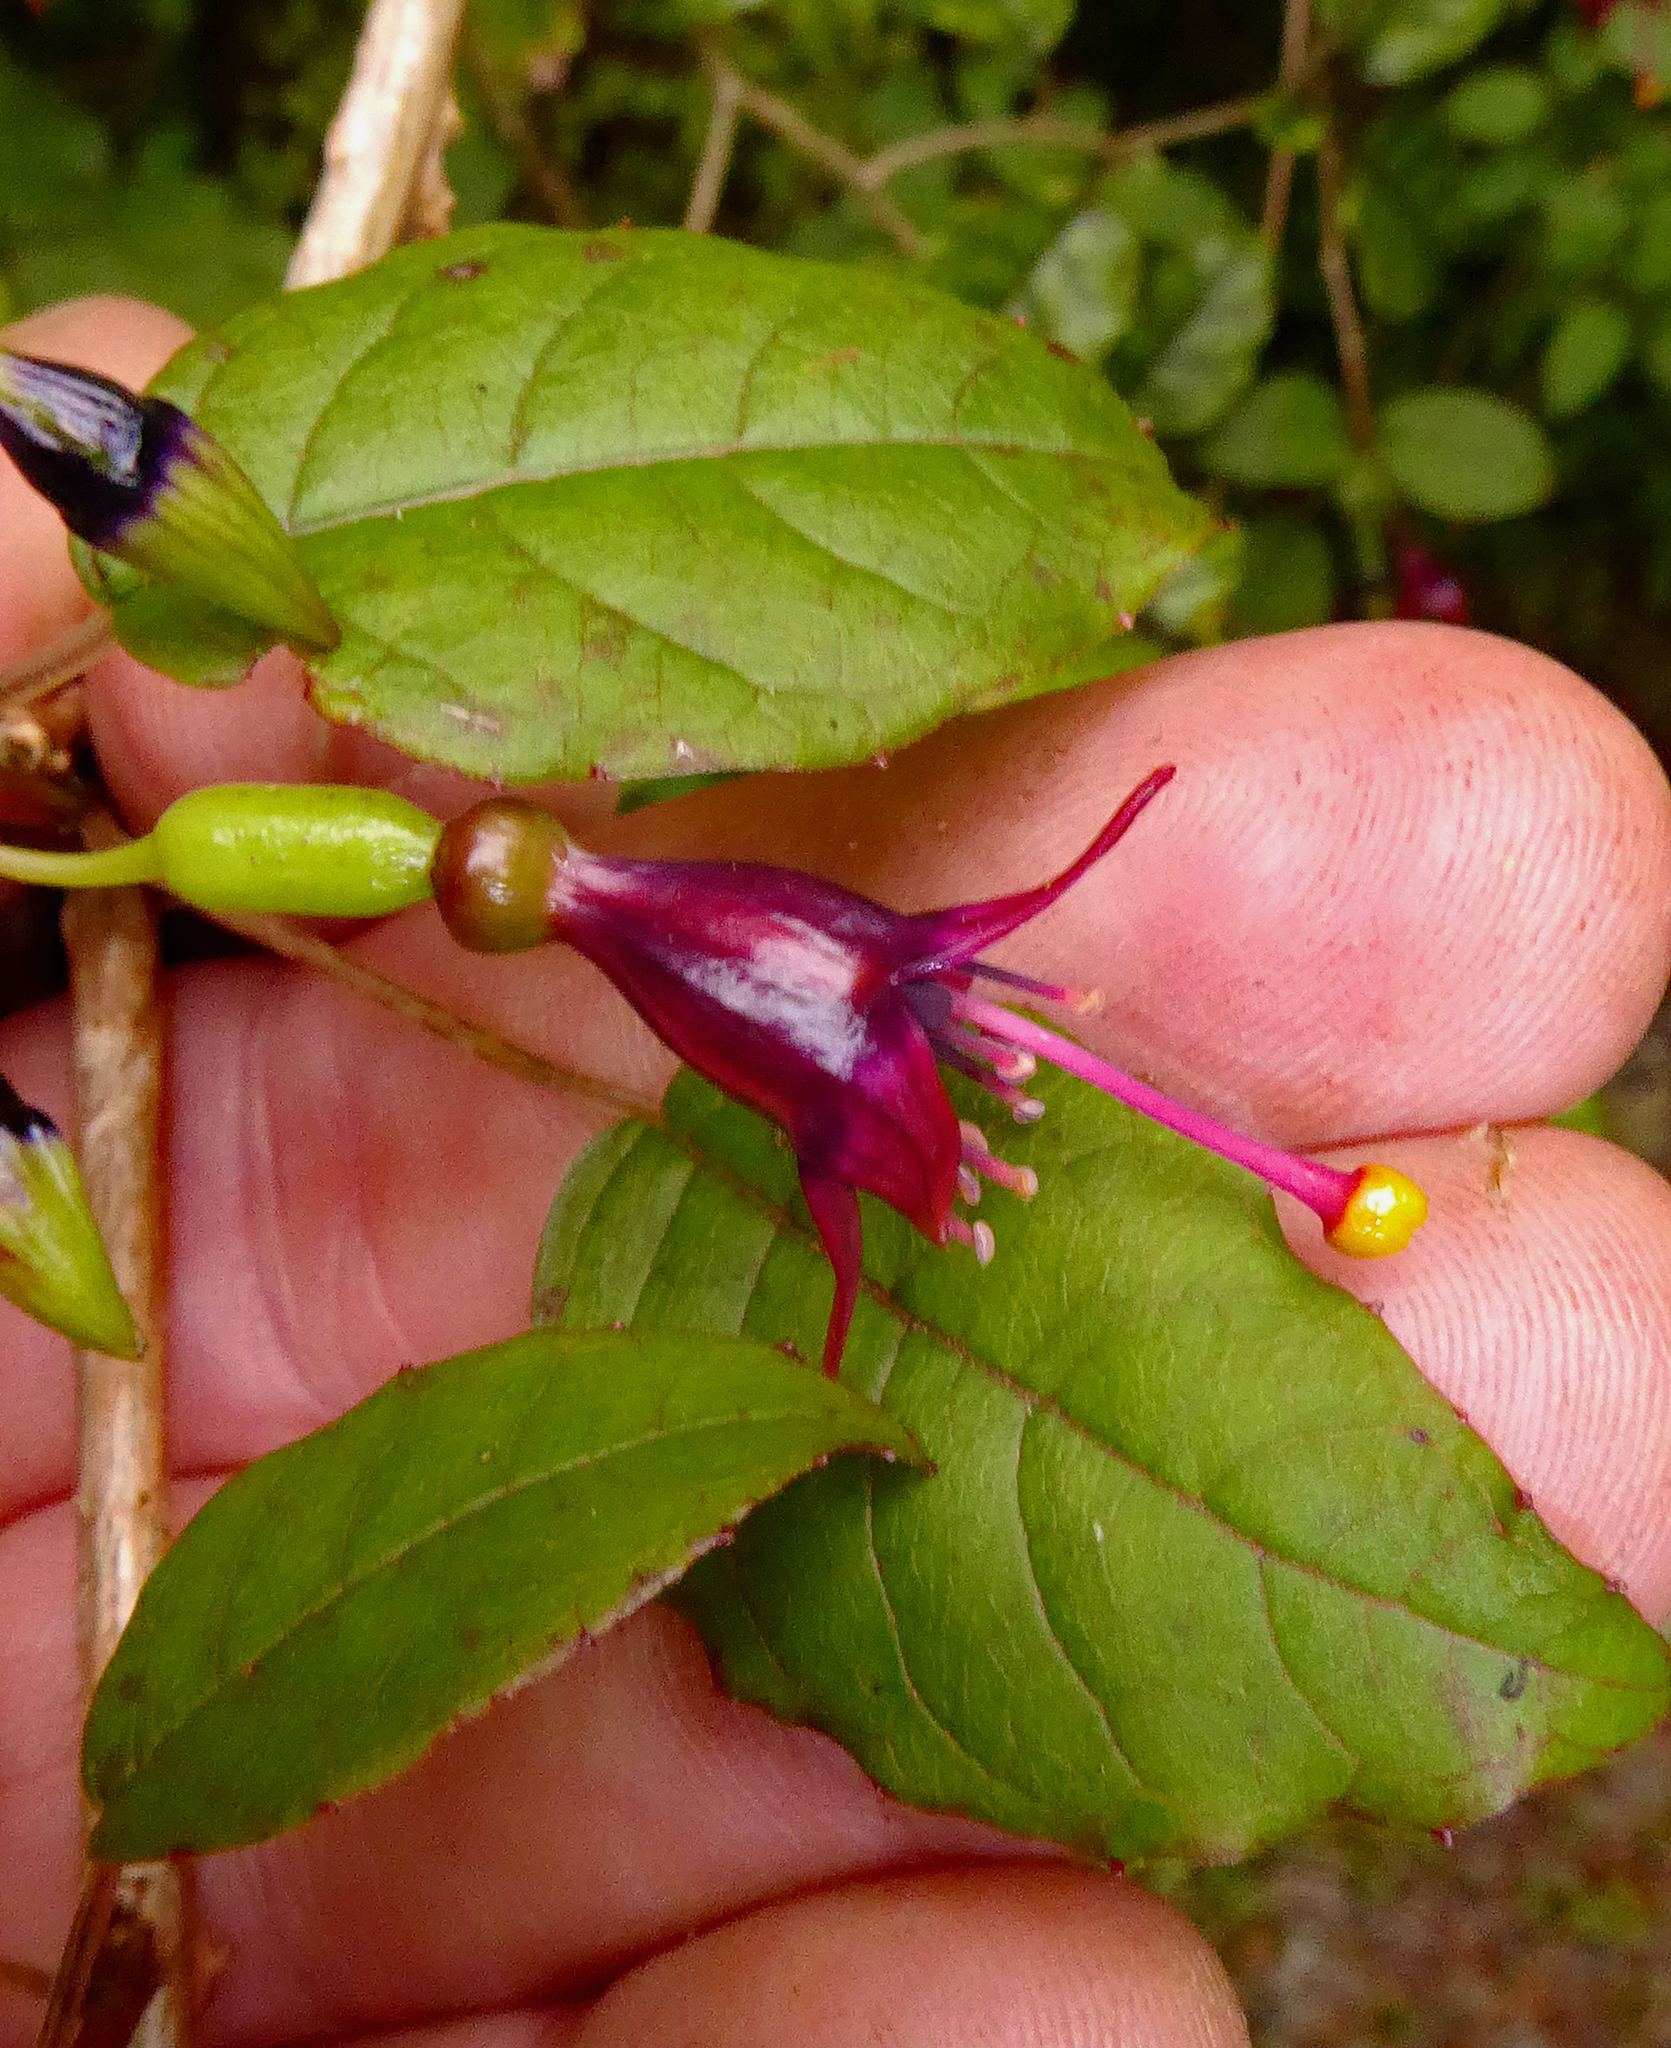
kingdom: Plantae
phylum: Tracheophyta
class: Magnoliopsida
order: Myrtales
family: Onagraceae
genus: Fuchsia
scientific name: Fuchsia
